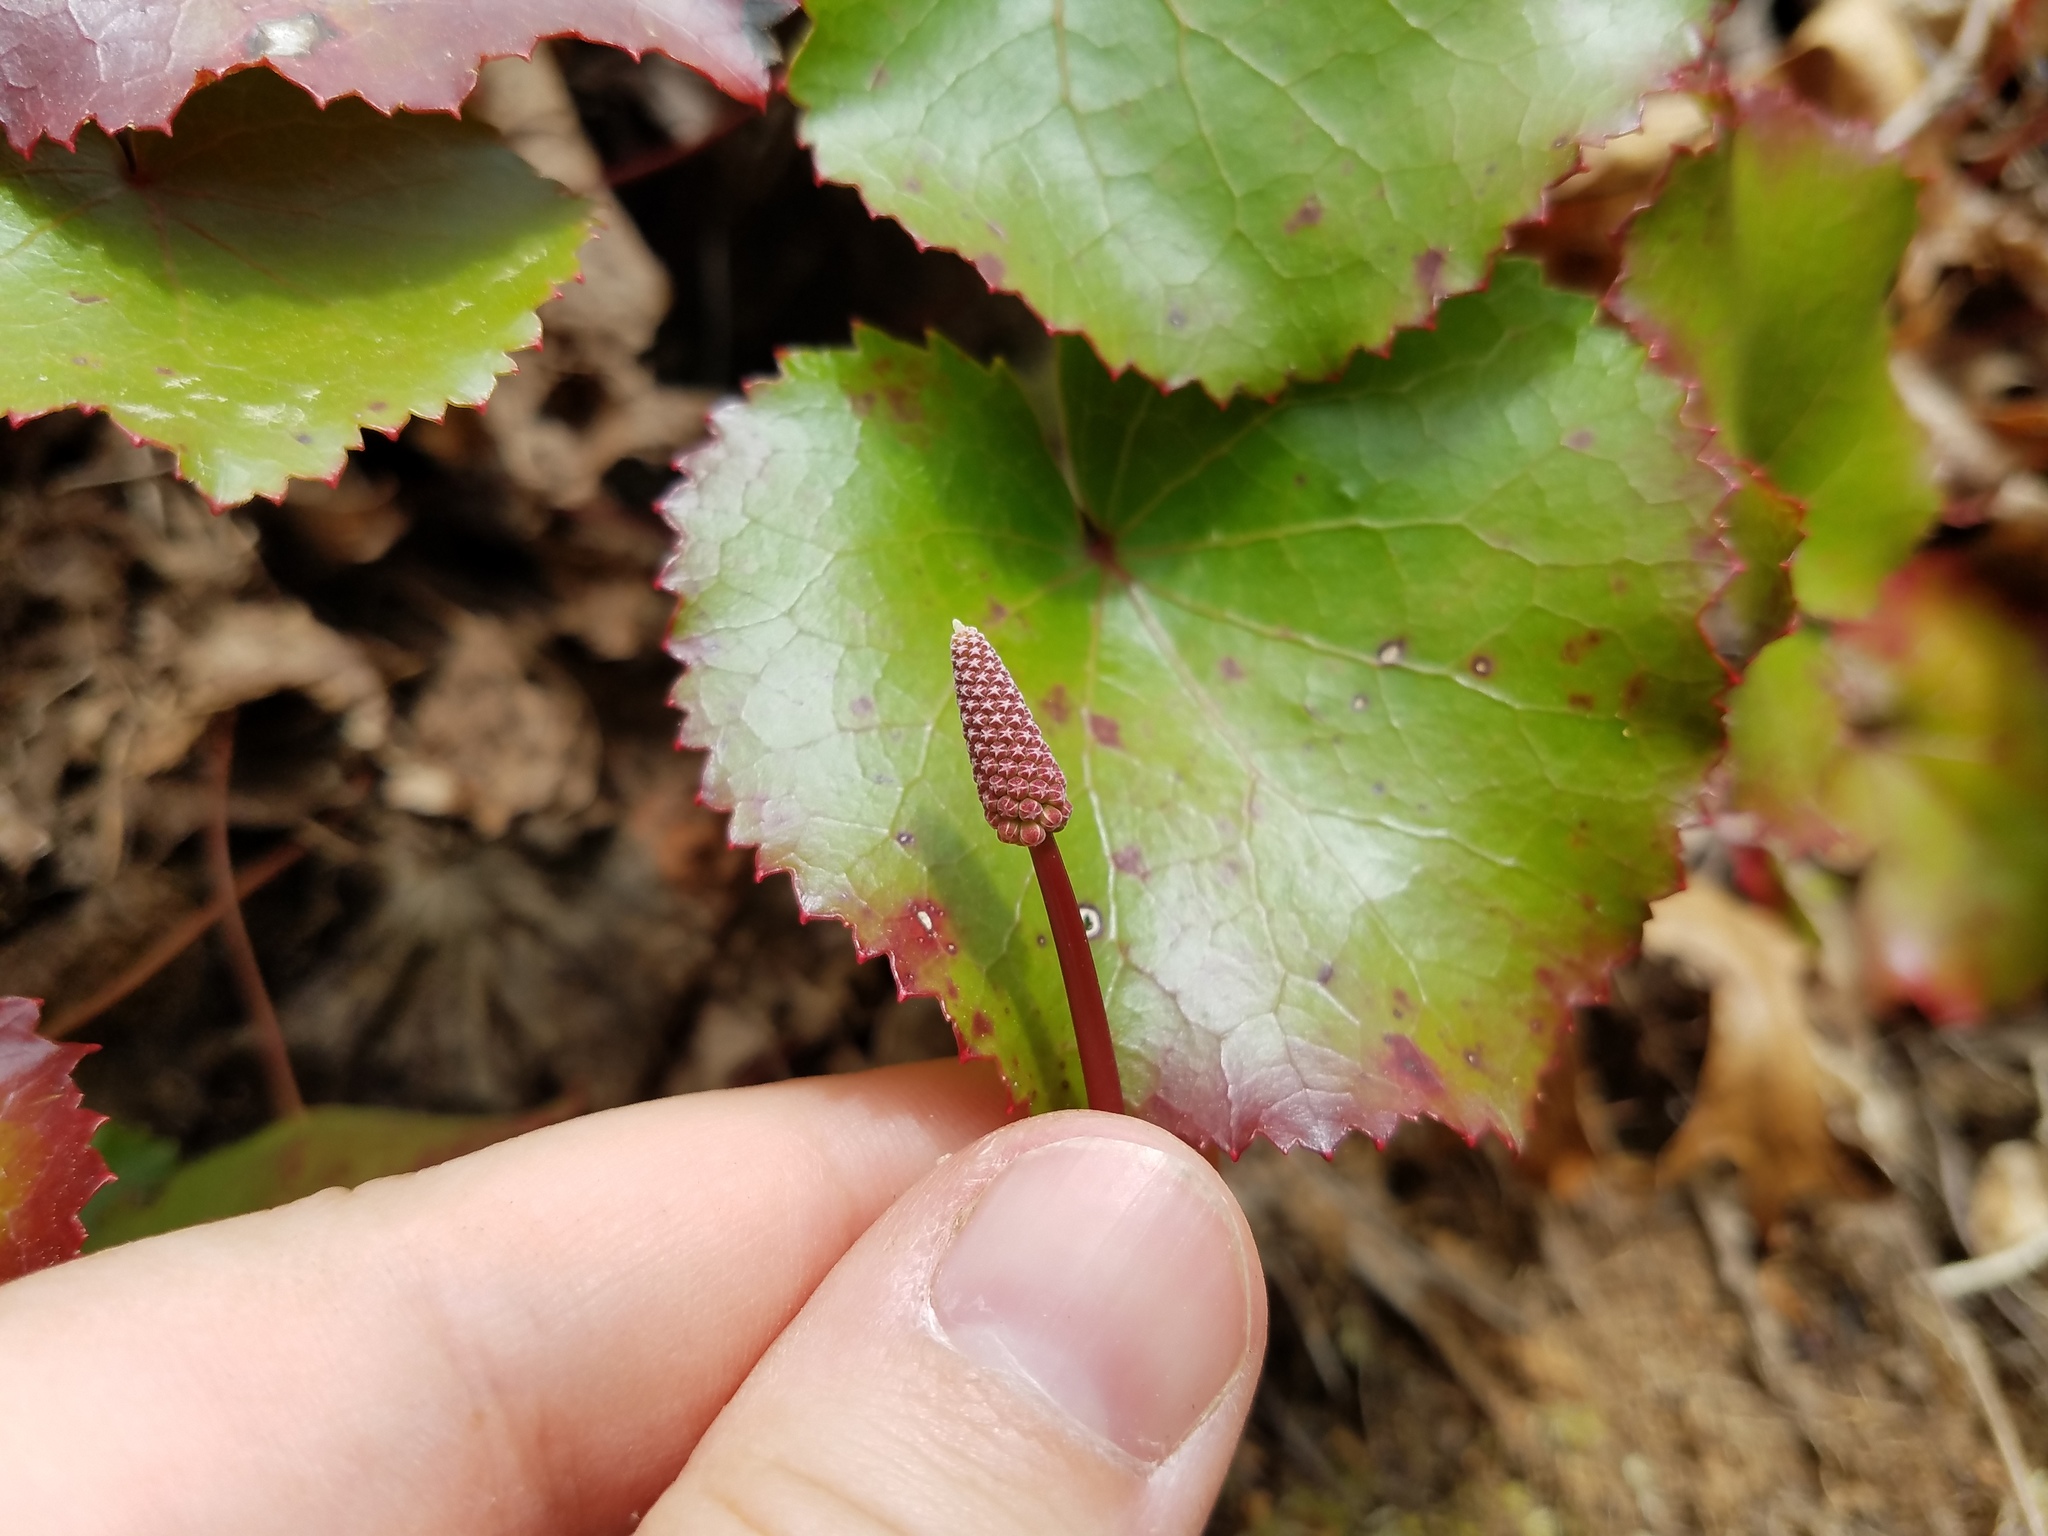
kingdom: Plantae
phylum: Tracheophyta
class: Magnoliopsida
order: Ericales
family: Diapensiaceae
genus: Galax
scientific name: Galax urceolata
